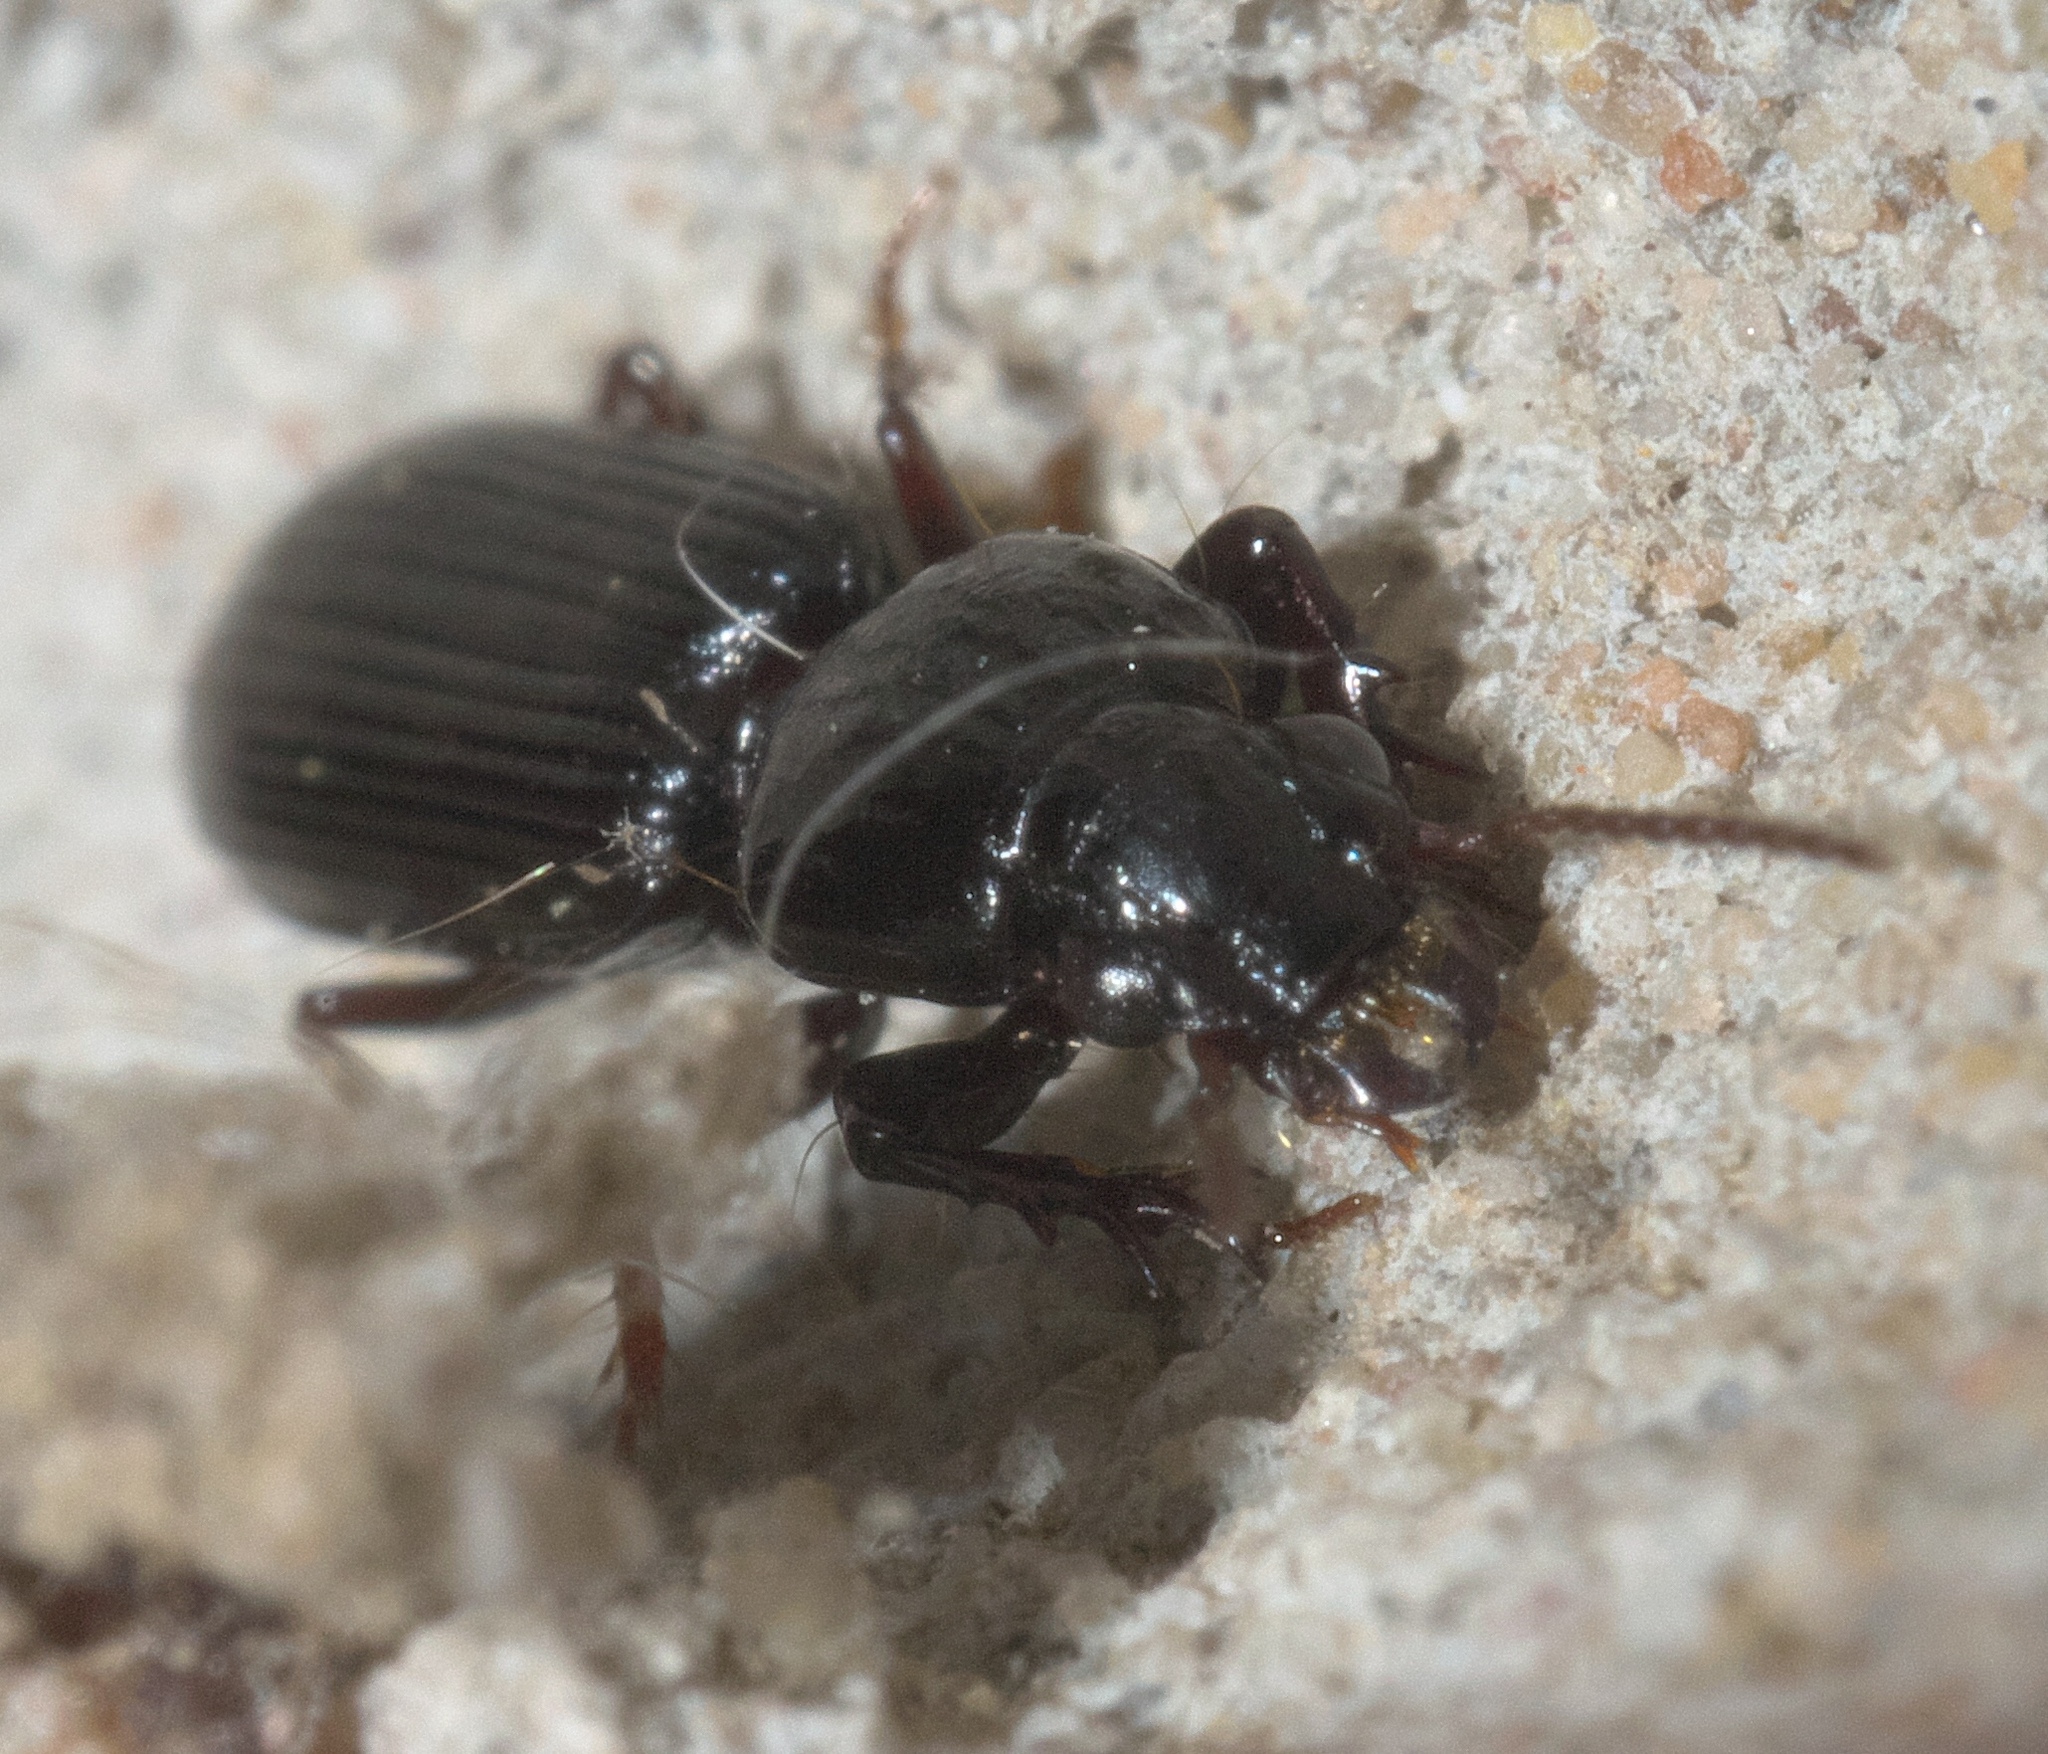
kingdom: Animalia
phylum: Arthropoda
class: Insecta
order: Coleoptera
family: Carabidae
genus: Semiclivina
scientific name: Semiclivina dentipes
